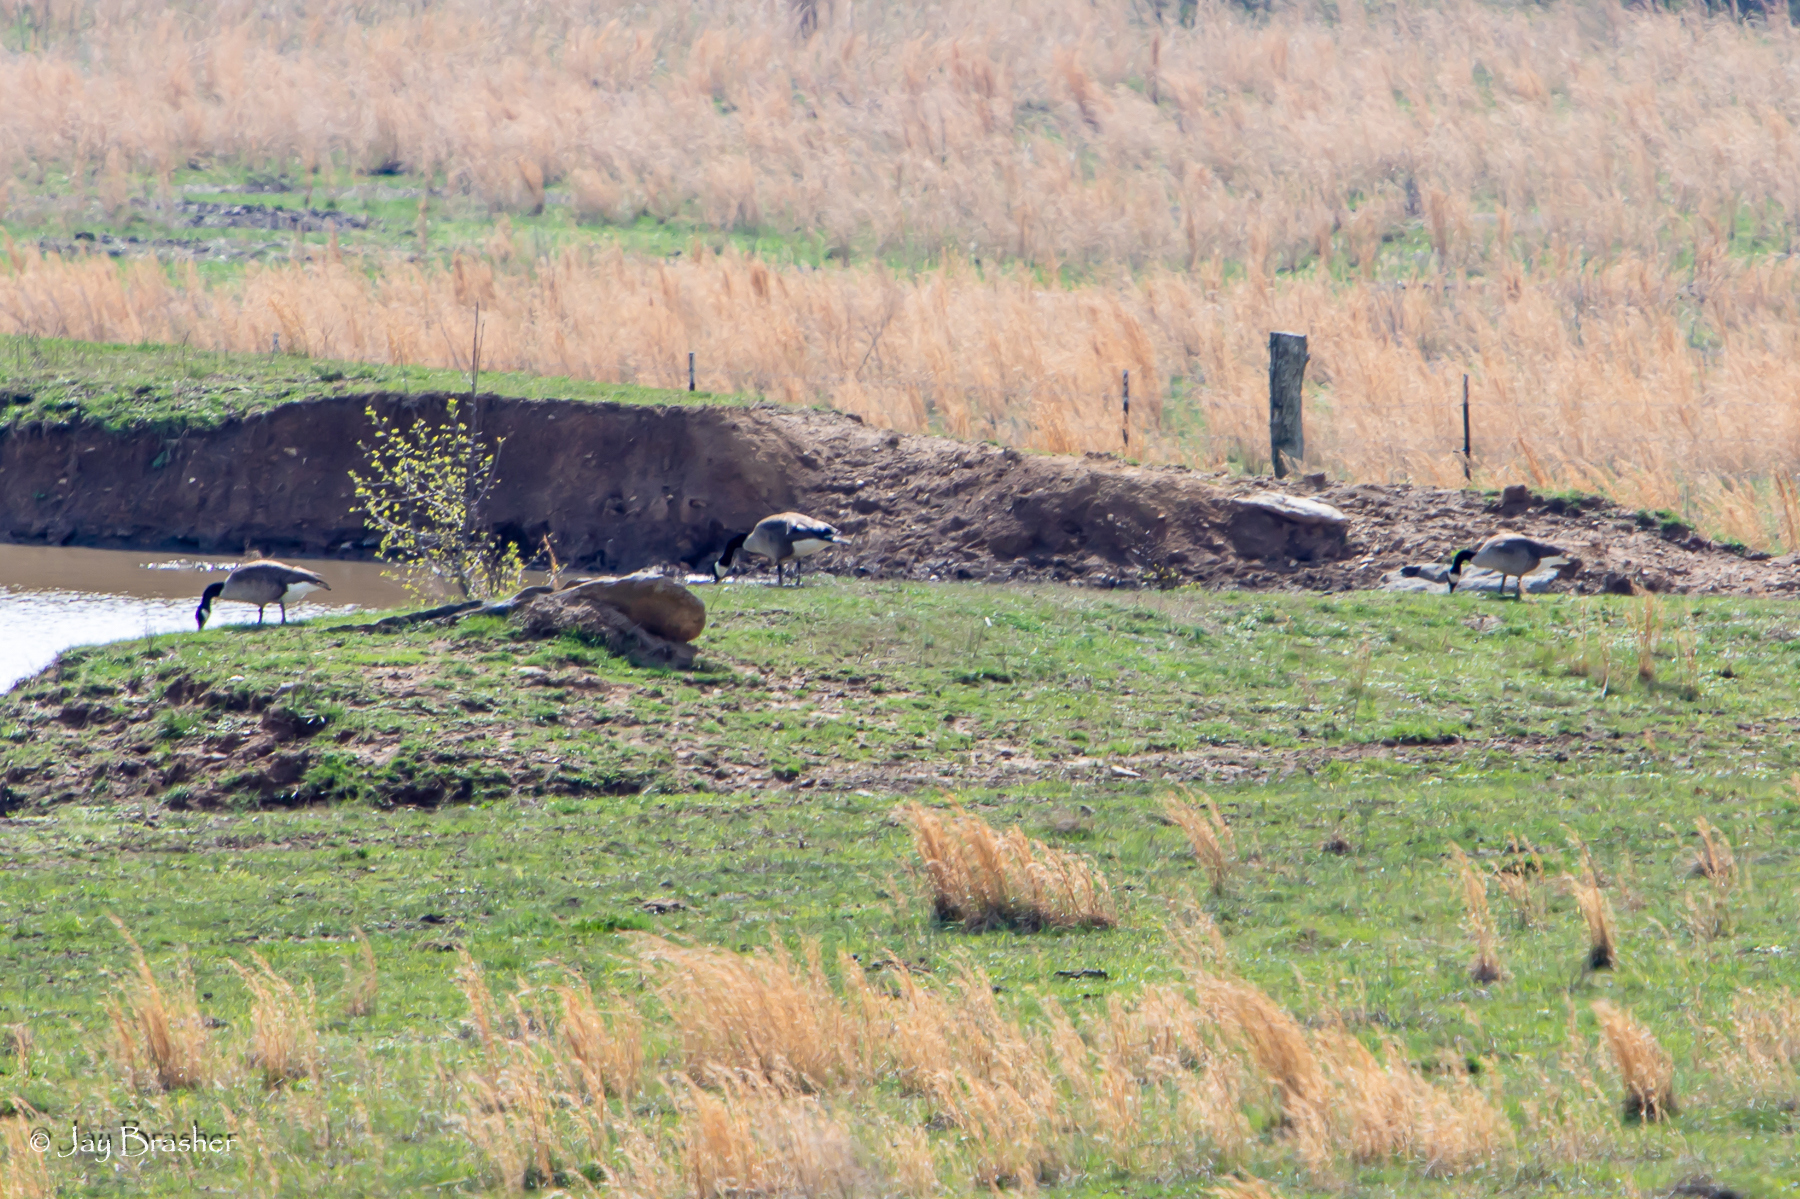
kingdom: Animalia
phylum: Chordata
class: Aves
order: Anseriformes
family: Anatidae
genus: Branta
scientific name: Branta canadensis
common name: Canada goose
